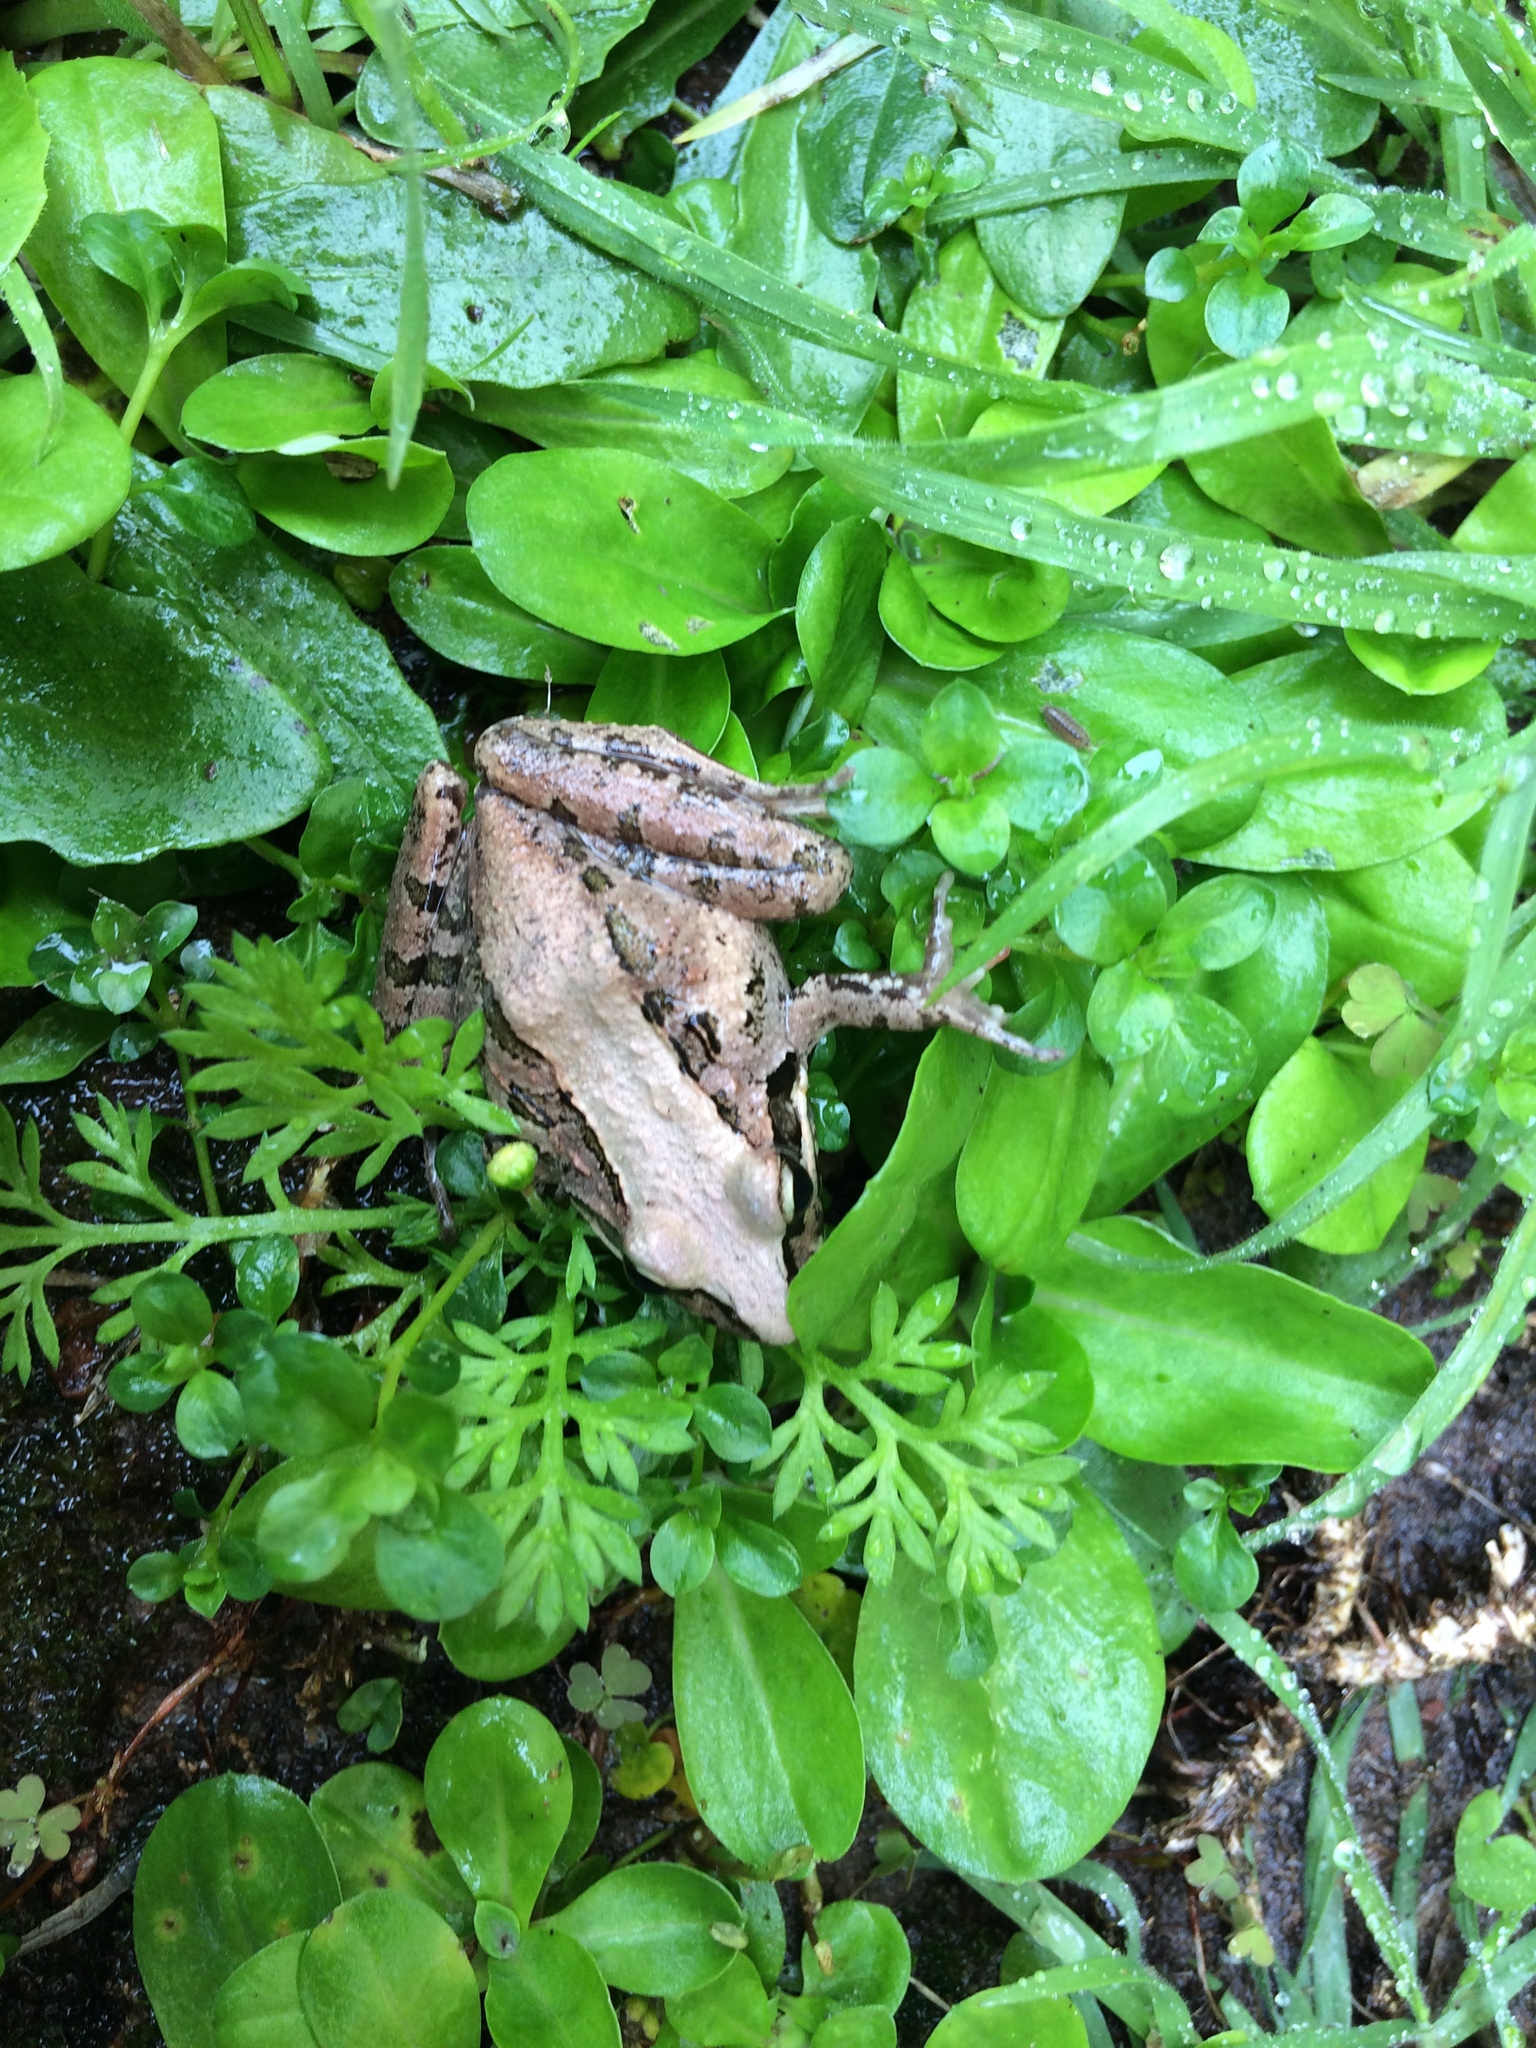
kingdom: Animalia
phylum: Chordata
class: Amphibia
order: Anura
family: Pyxicephalidae
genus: Strongylopus
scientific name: Strongylopus grayii
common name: Gray's stream frog
